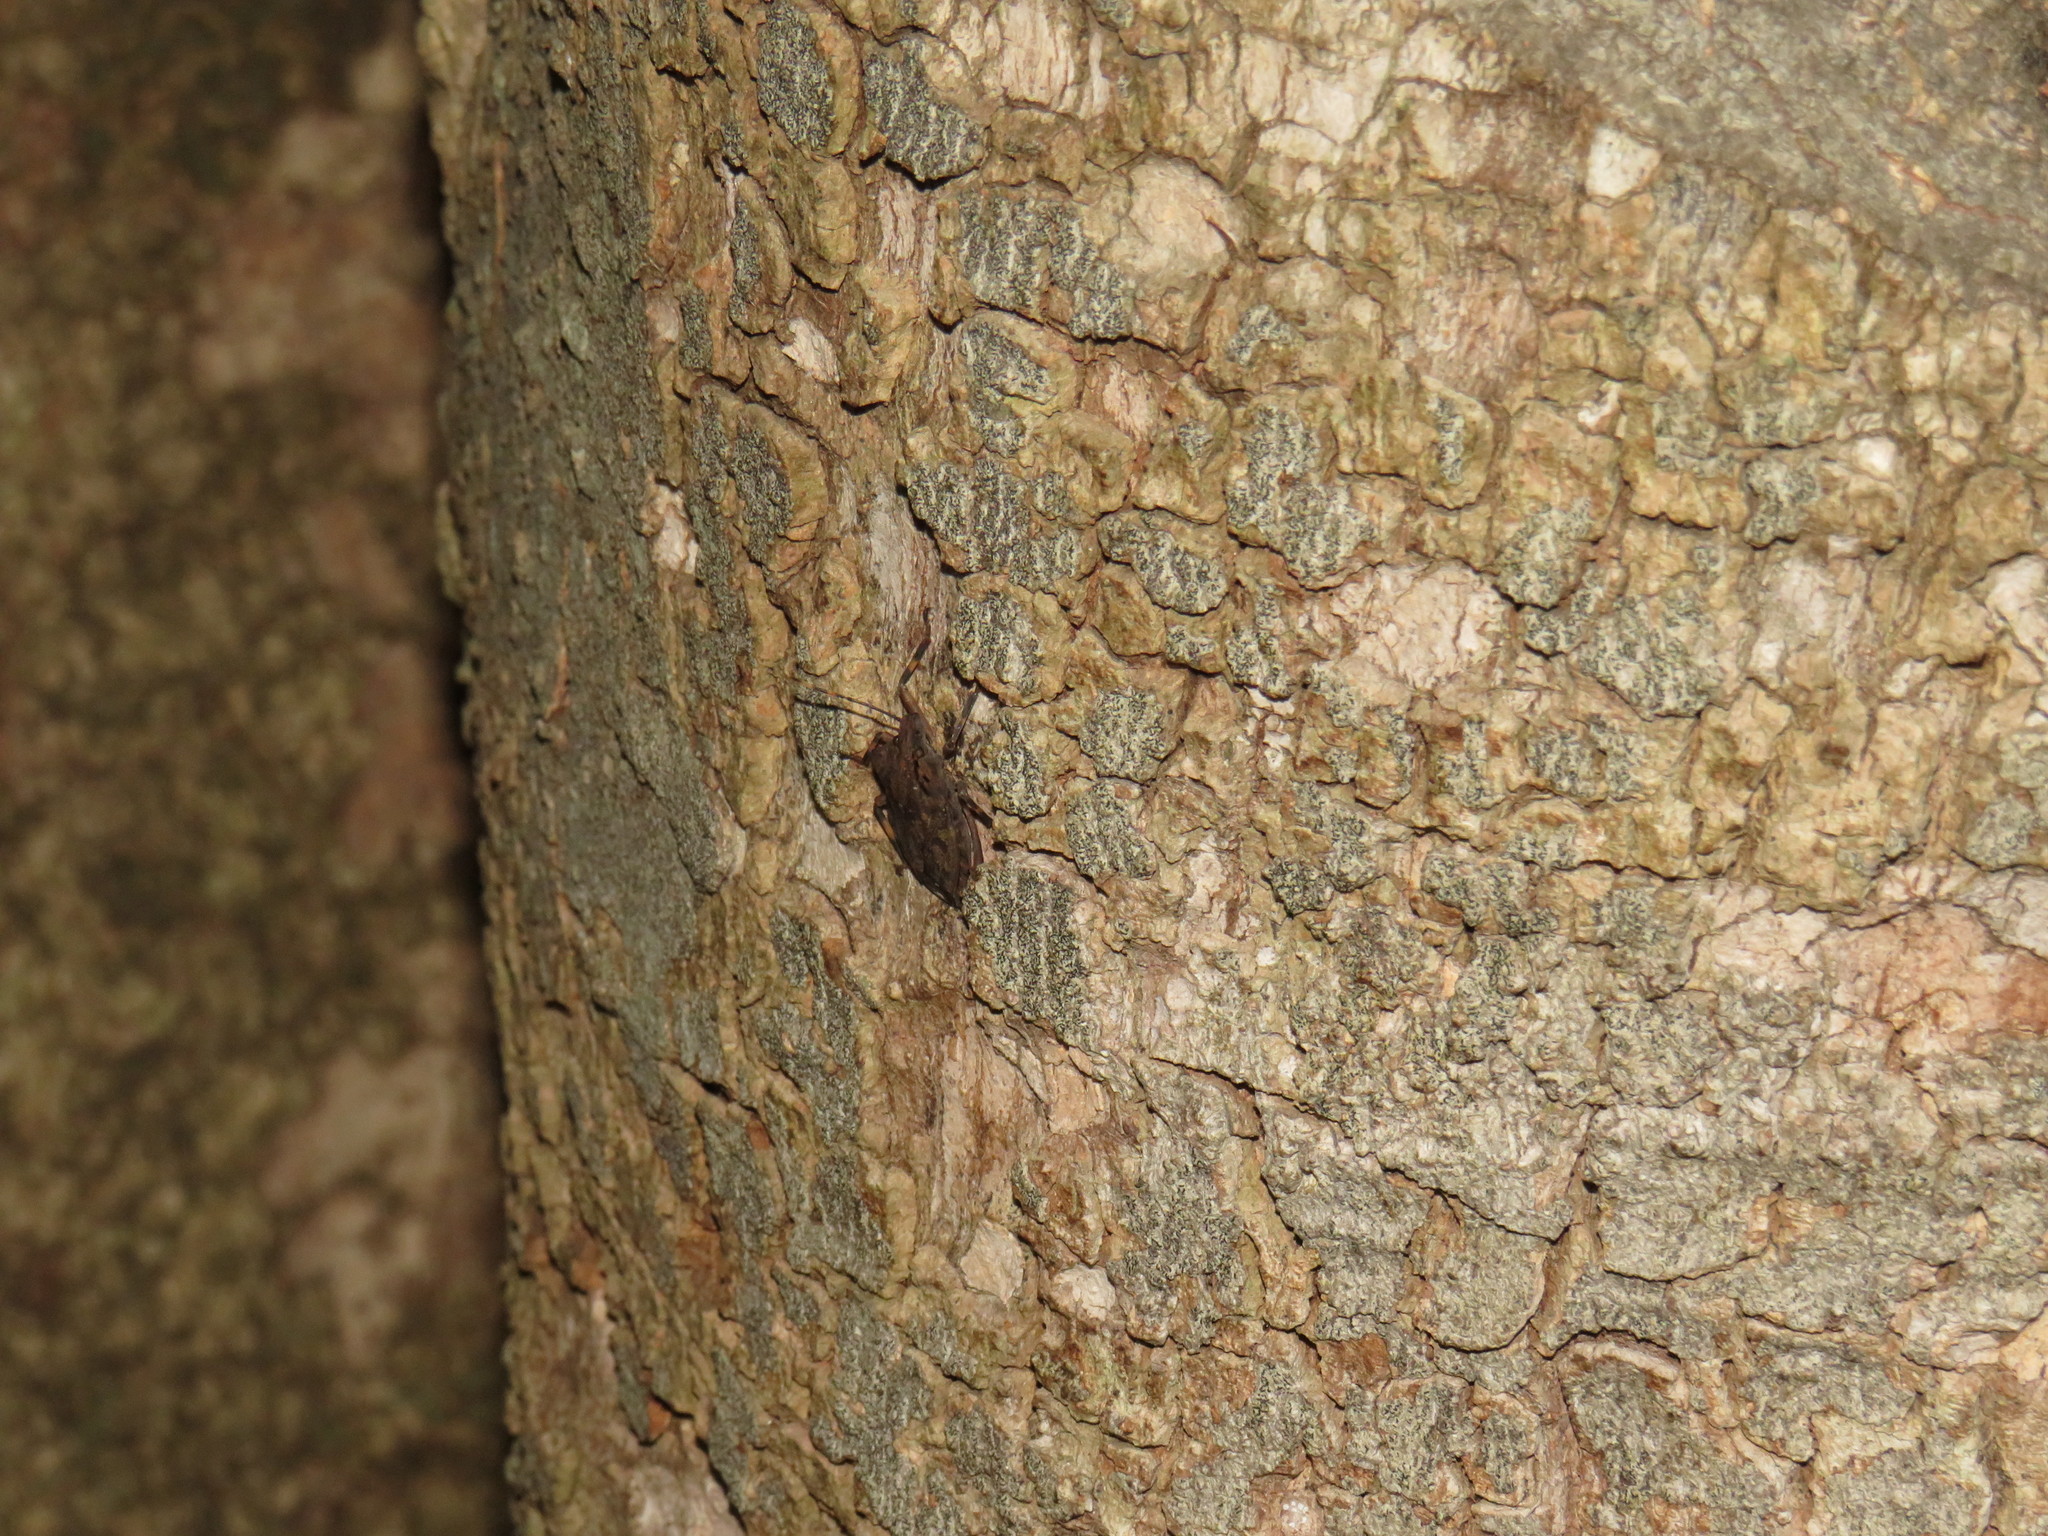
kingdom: Animalia
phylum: Arthropoda
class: Insecta
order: Hemiptera
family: Pentatomidae
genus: Coenomorpha
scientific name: Coenomorpha nervosa
